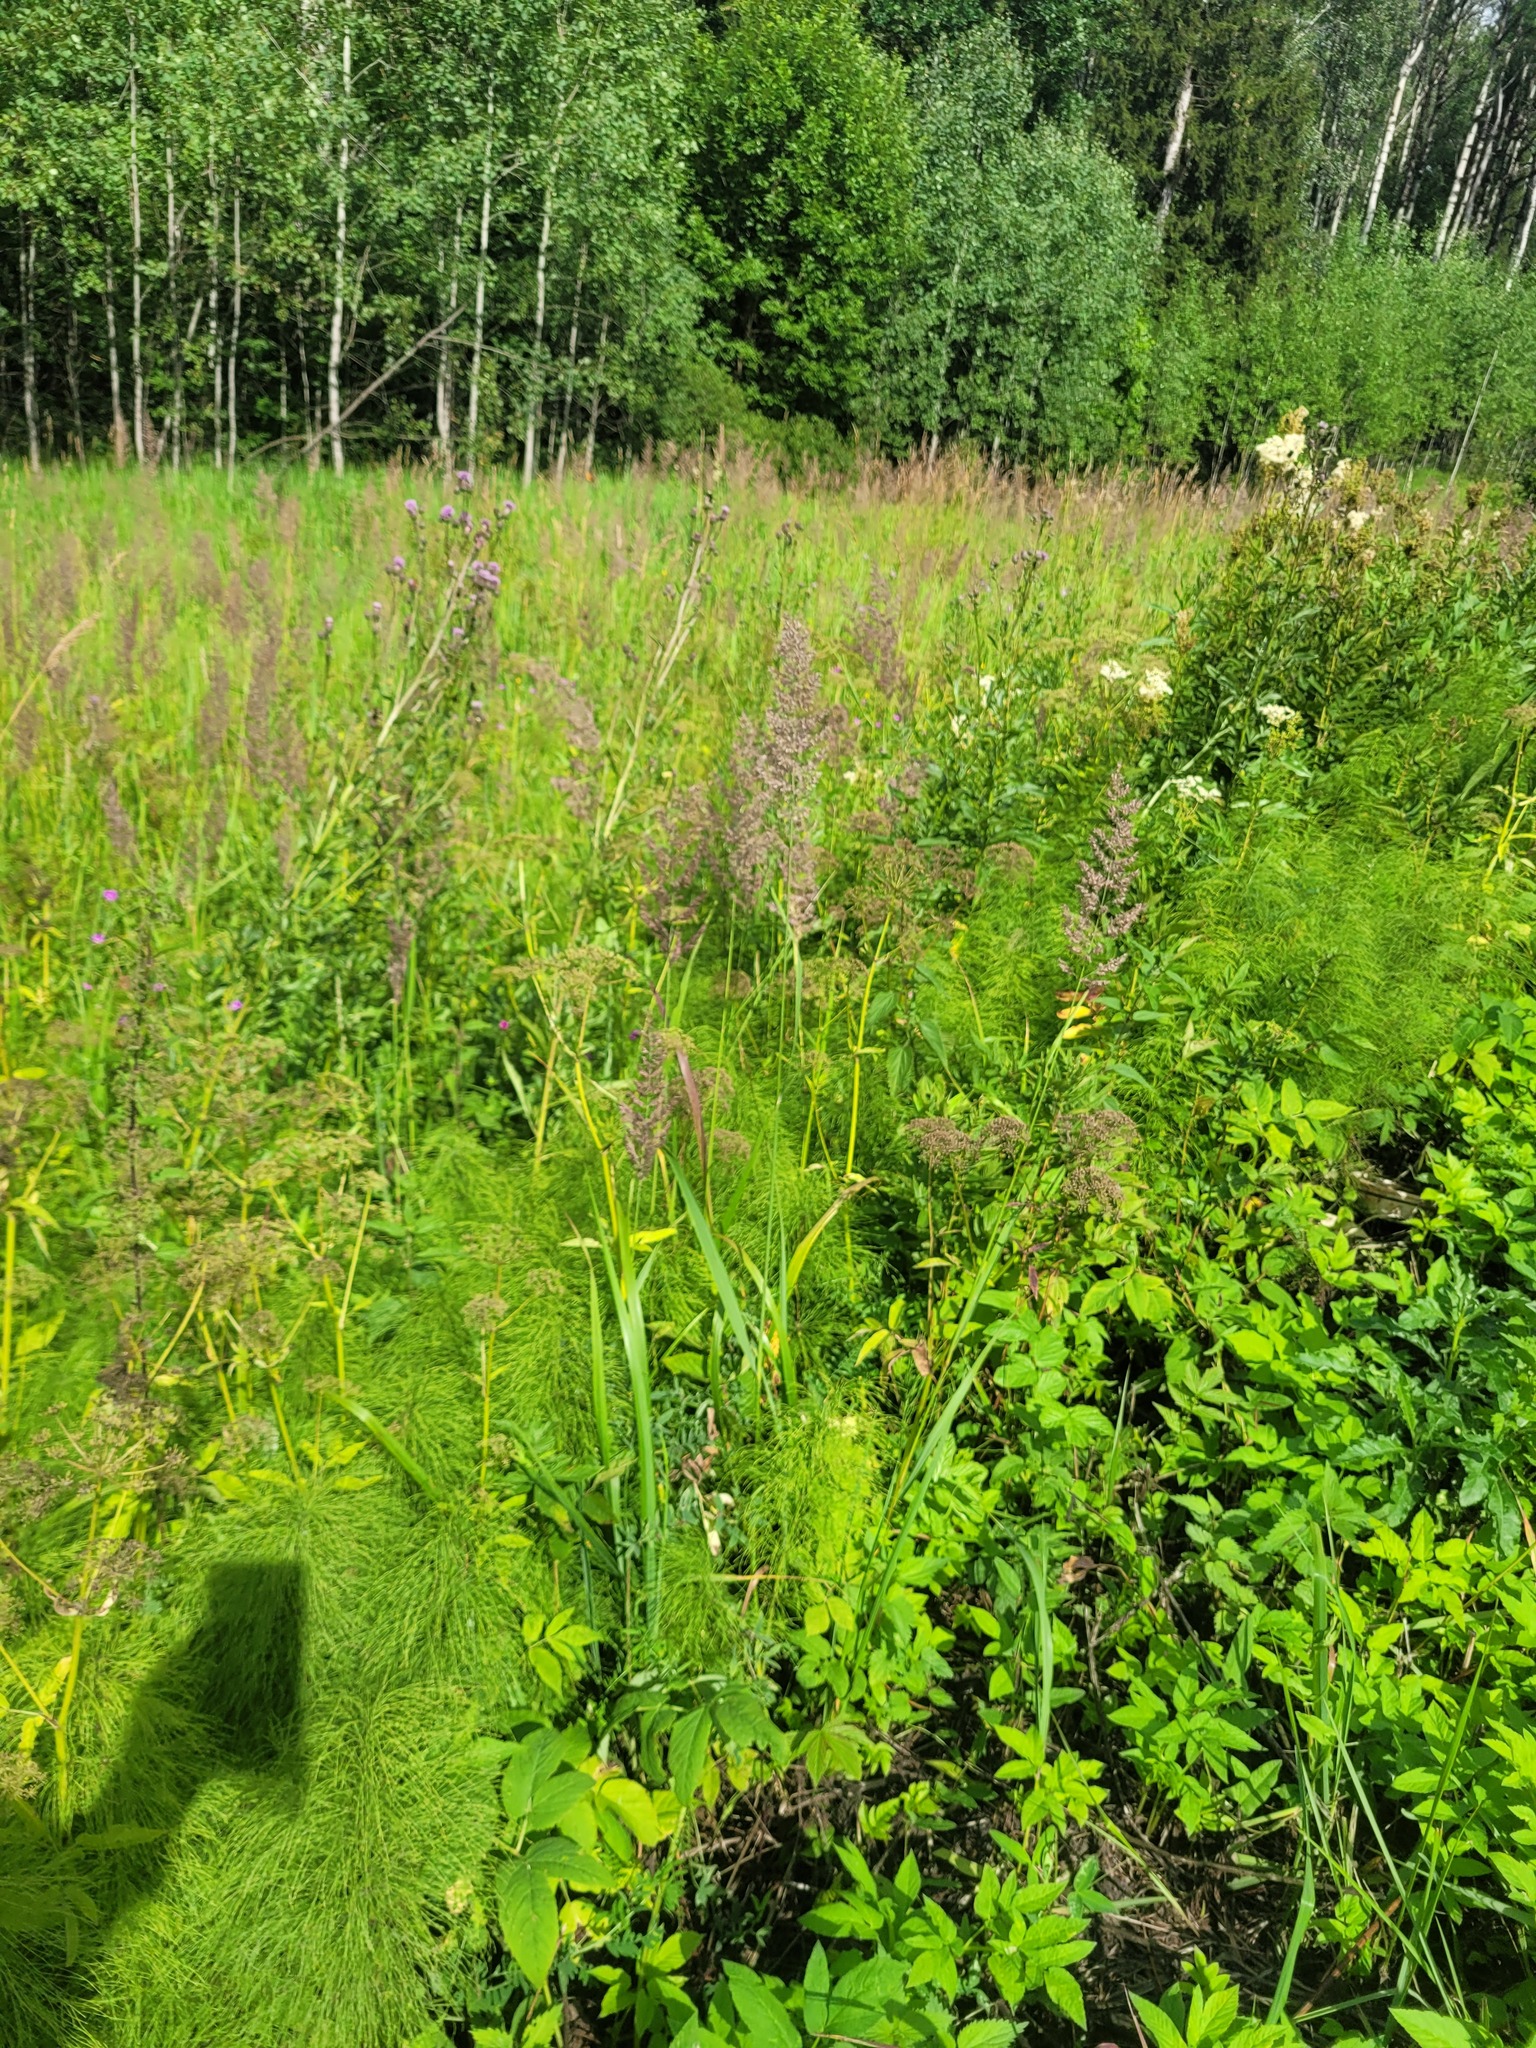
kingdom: Plantae
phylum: Tracheophyta
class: Liliopsida
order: Poales
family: Poaceae
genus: Calamagrostis
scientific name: Calamagrostis epigejos
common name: Wood small-reed
